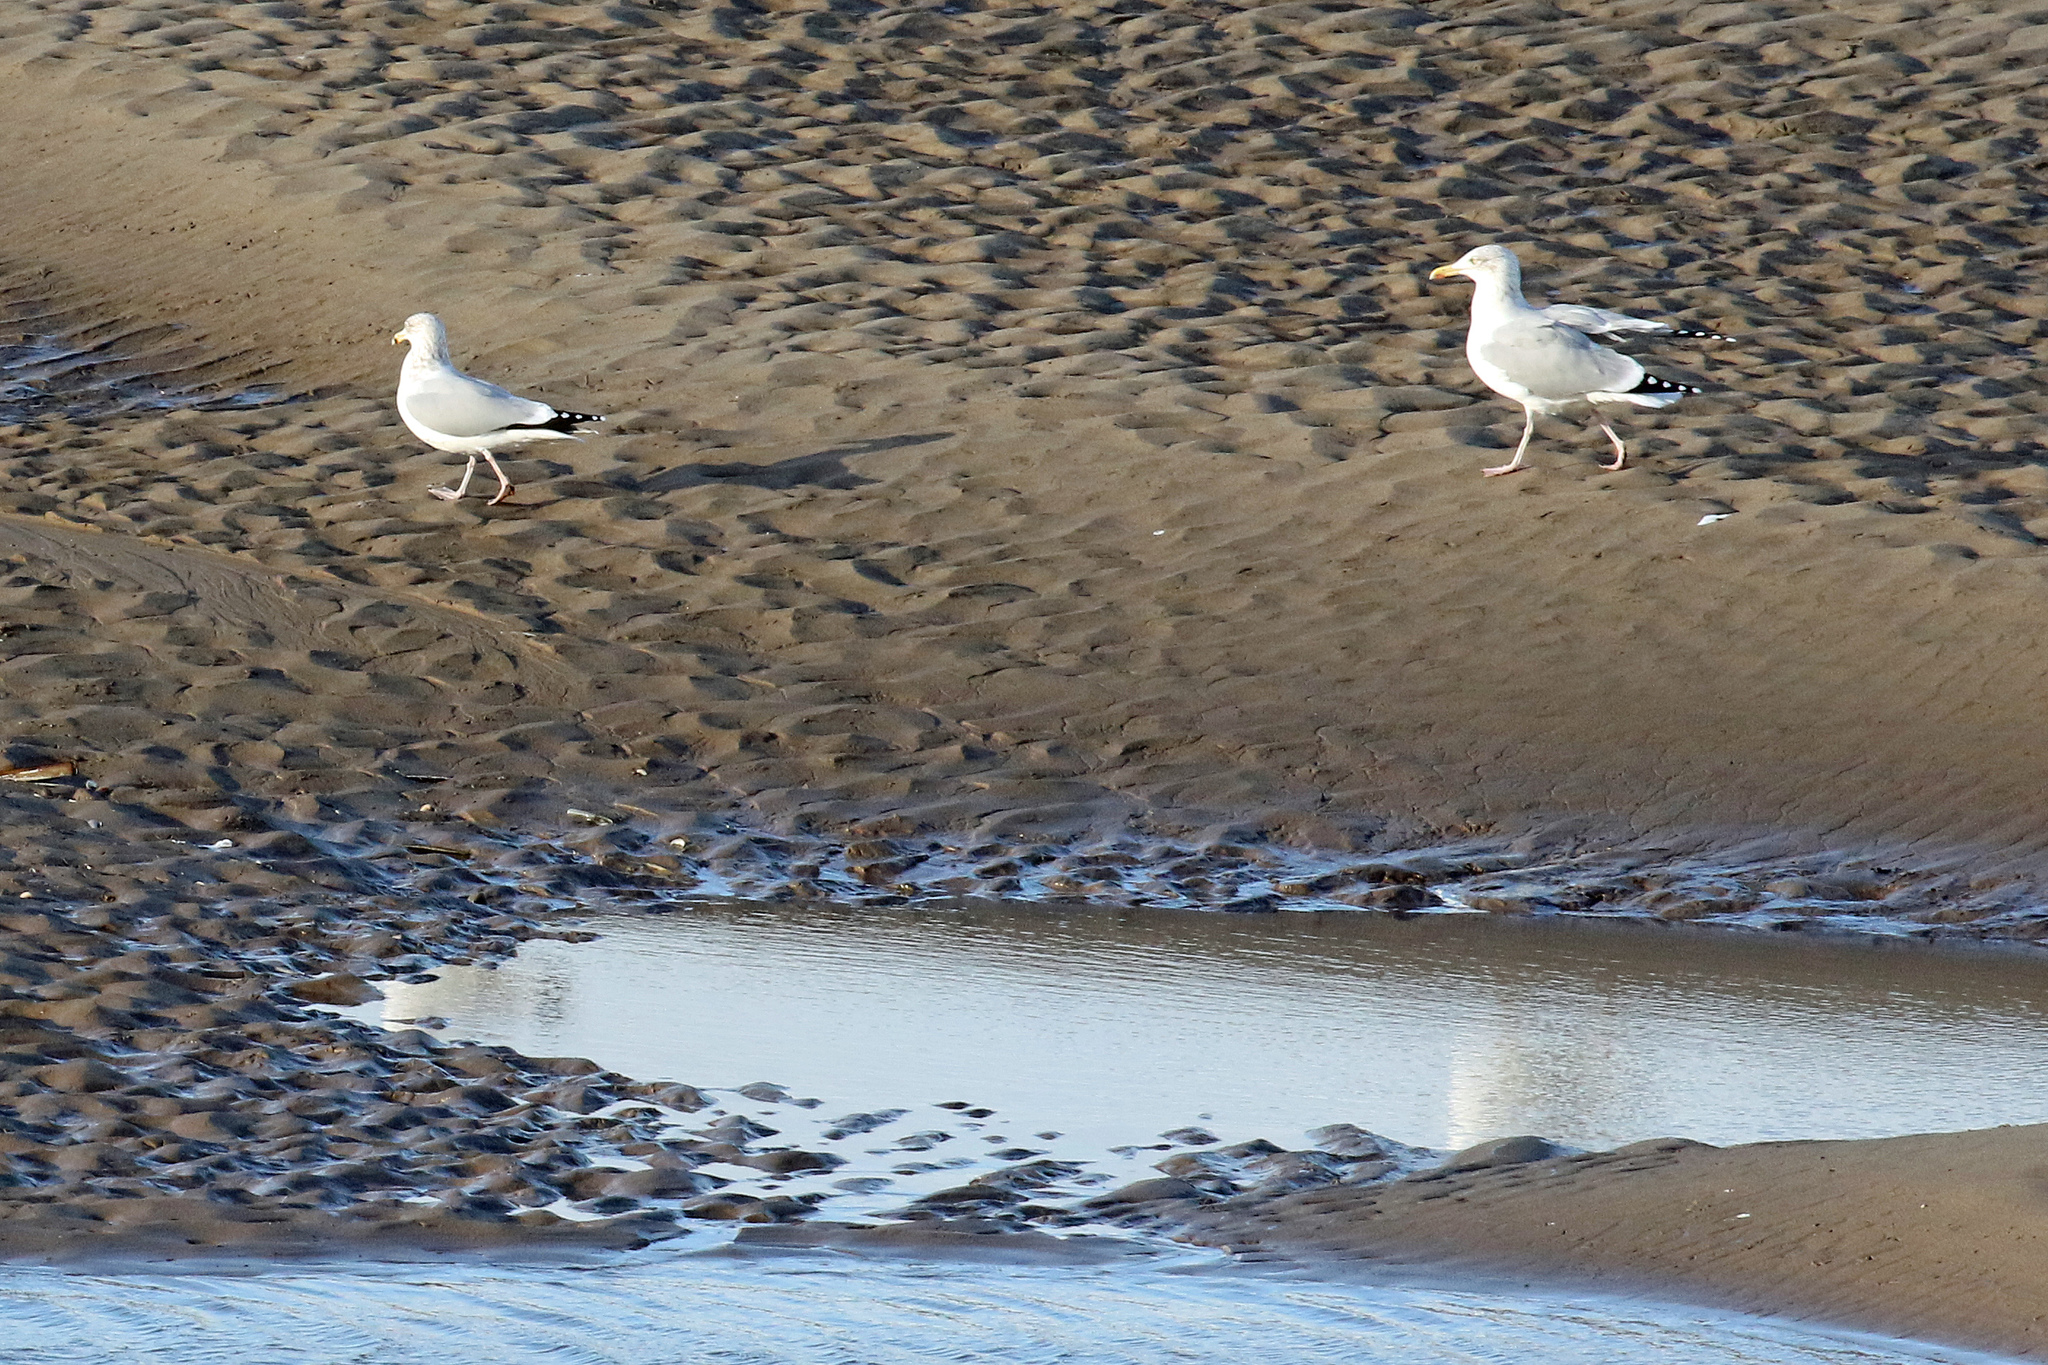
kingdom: Animalia
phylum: Chordata
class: Aves
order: Charadriiformes
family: Laridae
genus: Larus
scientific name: Larus argentatus
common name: Herring gull
